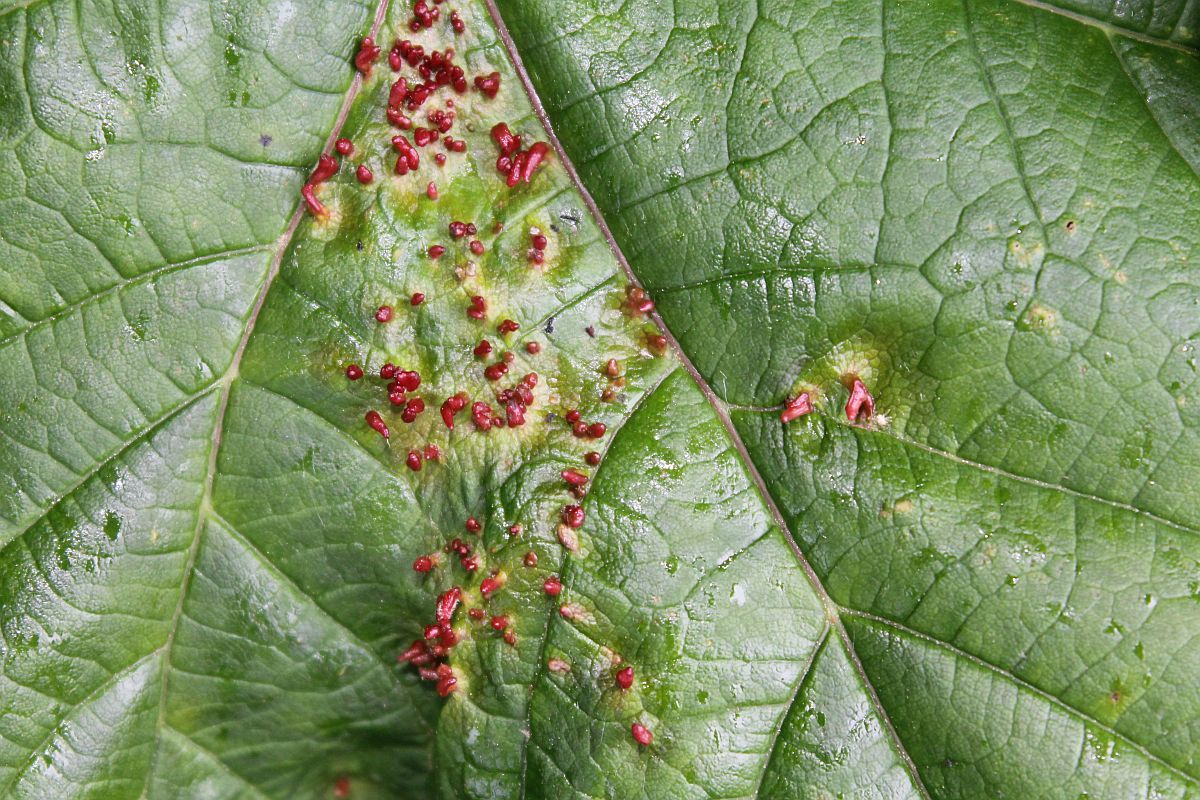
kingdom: Animalia
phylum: Arthropoda
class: Arachnida
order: Trombidiformes
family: Eriophyidae
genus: Aceria
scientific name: Aceria cephaloneus
